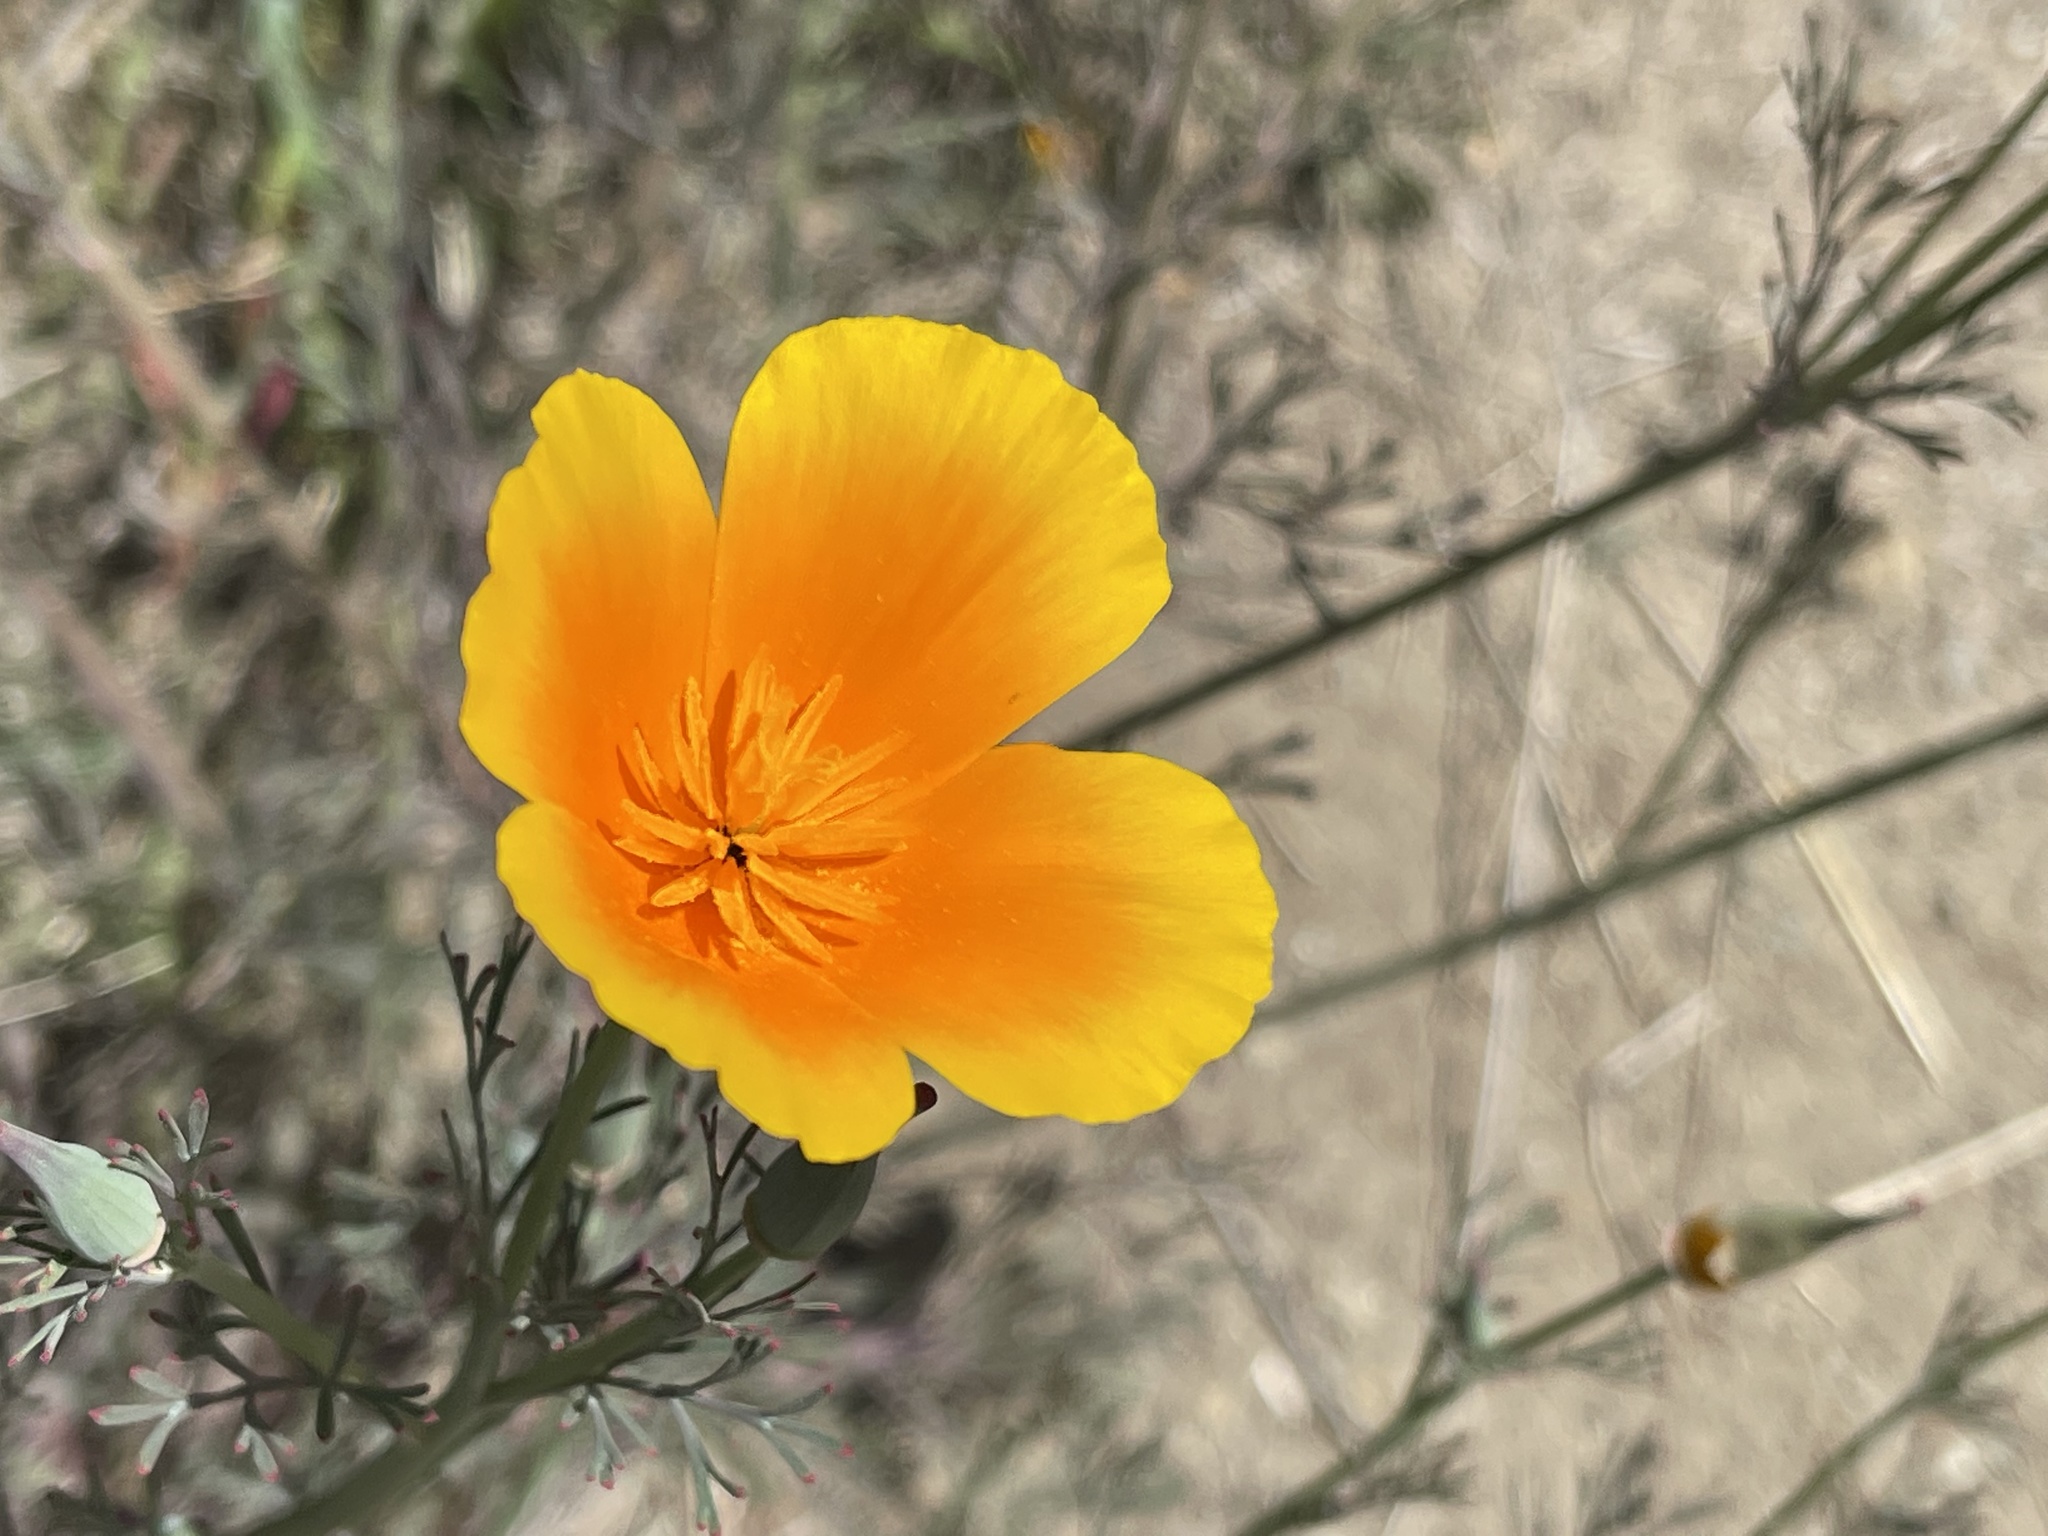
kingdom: Plantae
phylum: Tracheophyta
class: Magnoliopsida
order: Ranunculales
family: Papaveraceae
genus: Eschscholzia
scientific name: Eschscholzia californica
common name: California poppy
